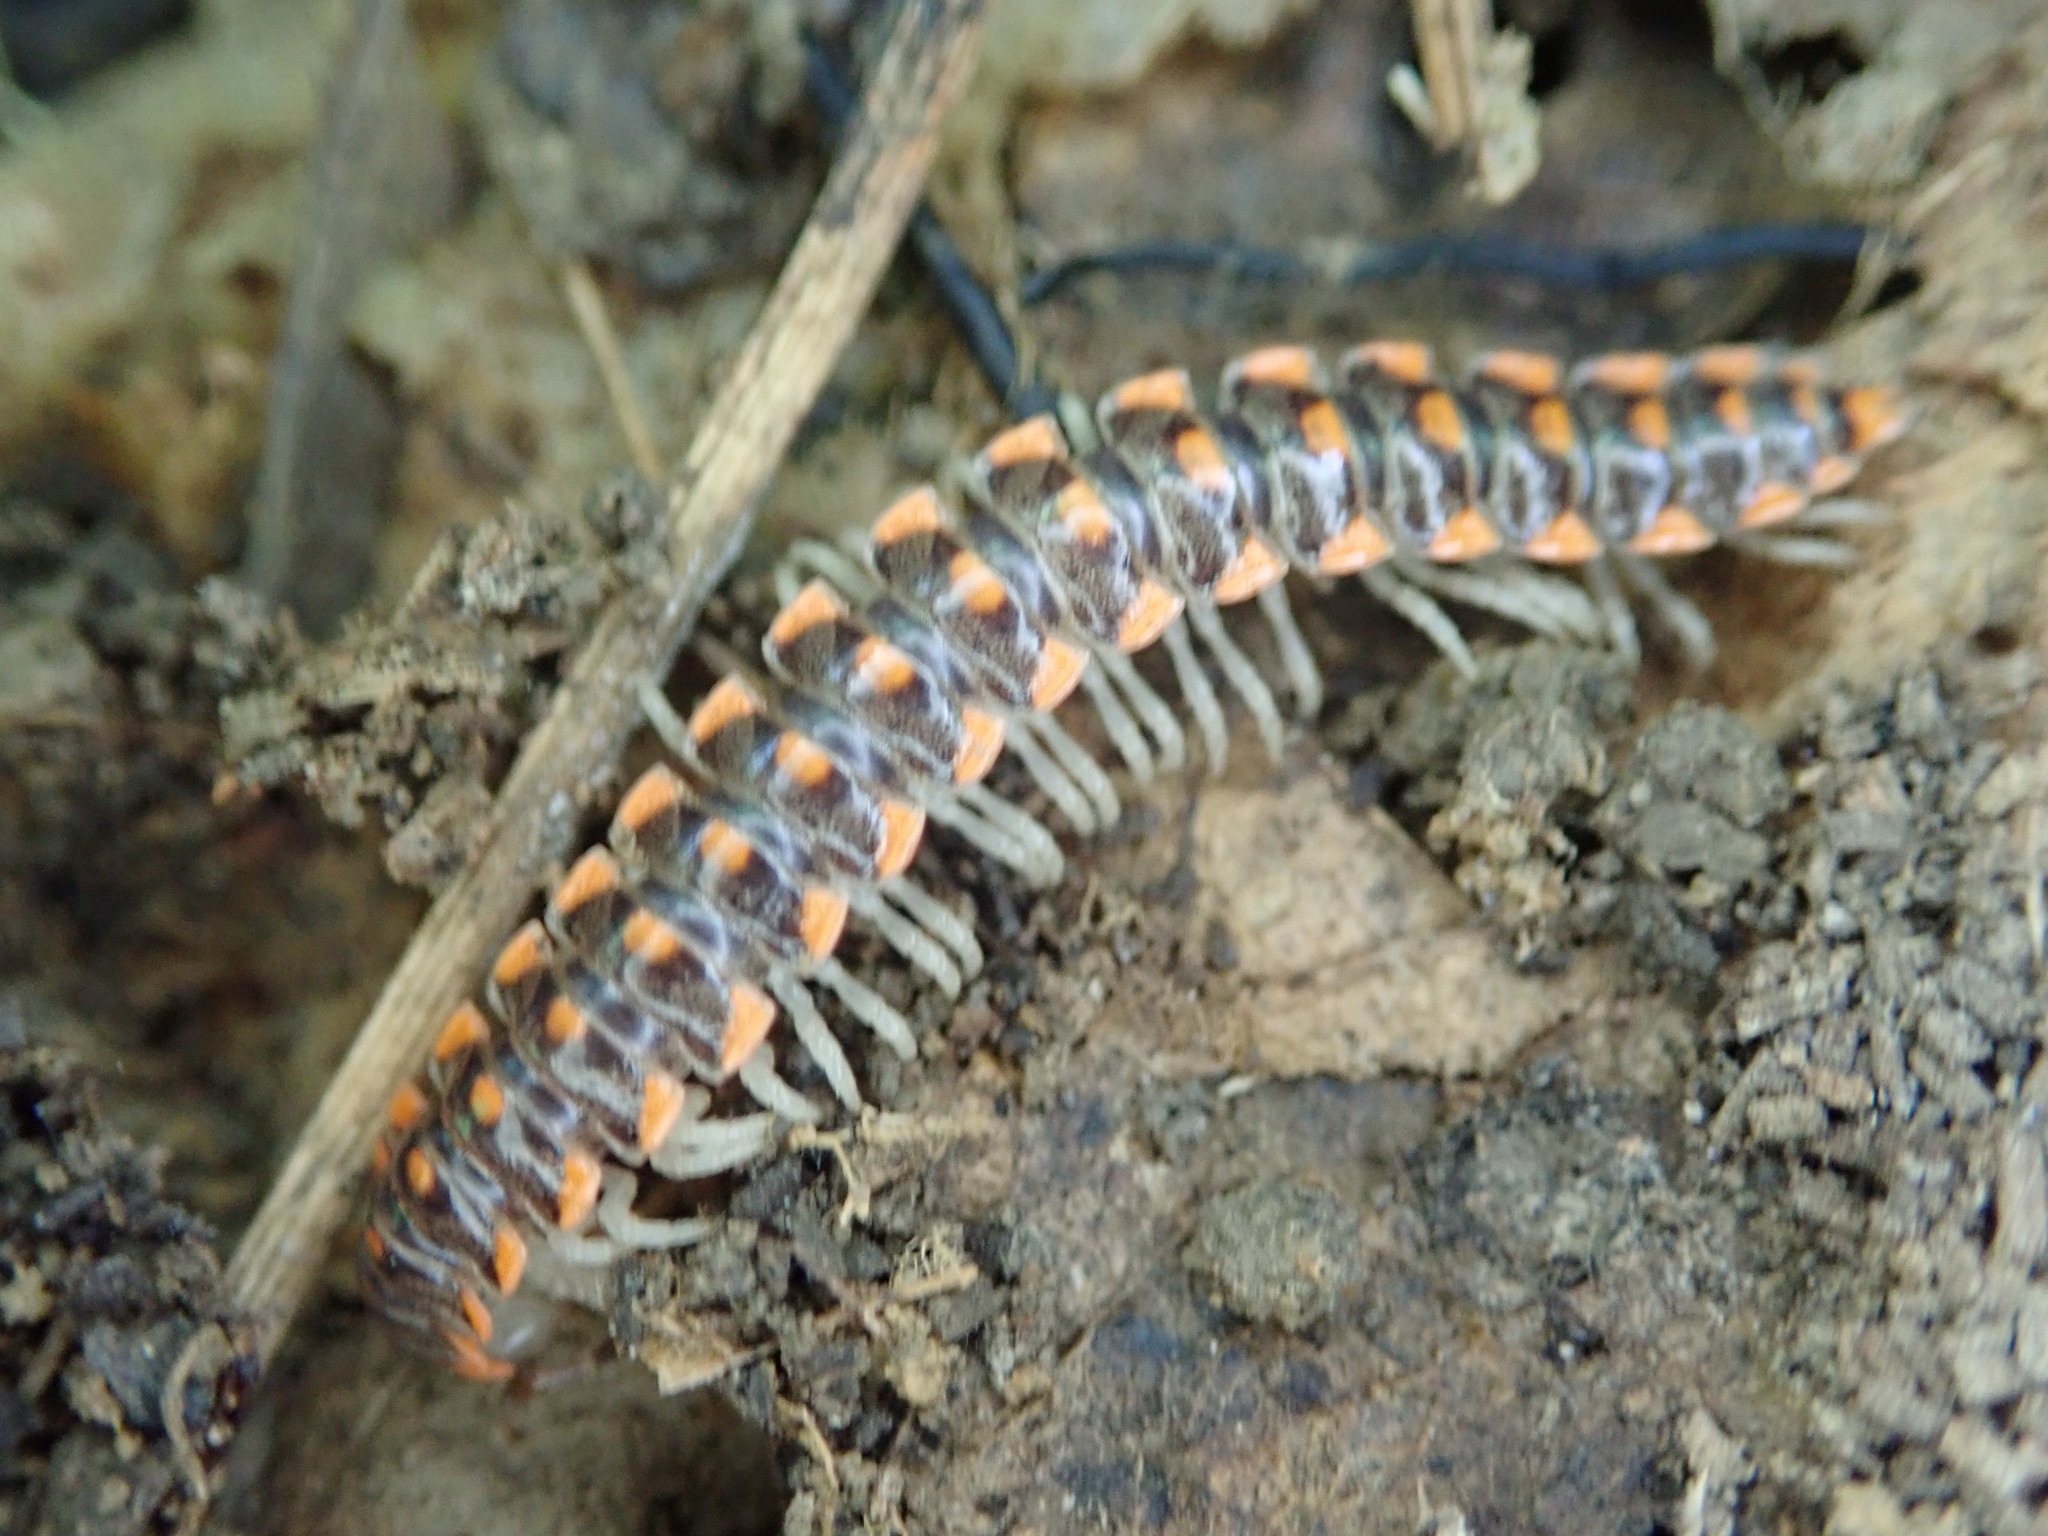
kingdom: Animalia
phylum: Arthropoda
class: Diplopoda
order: Polydesmida
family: Xystodesmidae
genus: Euryurus
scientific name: Euryurus leachii
